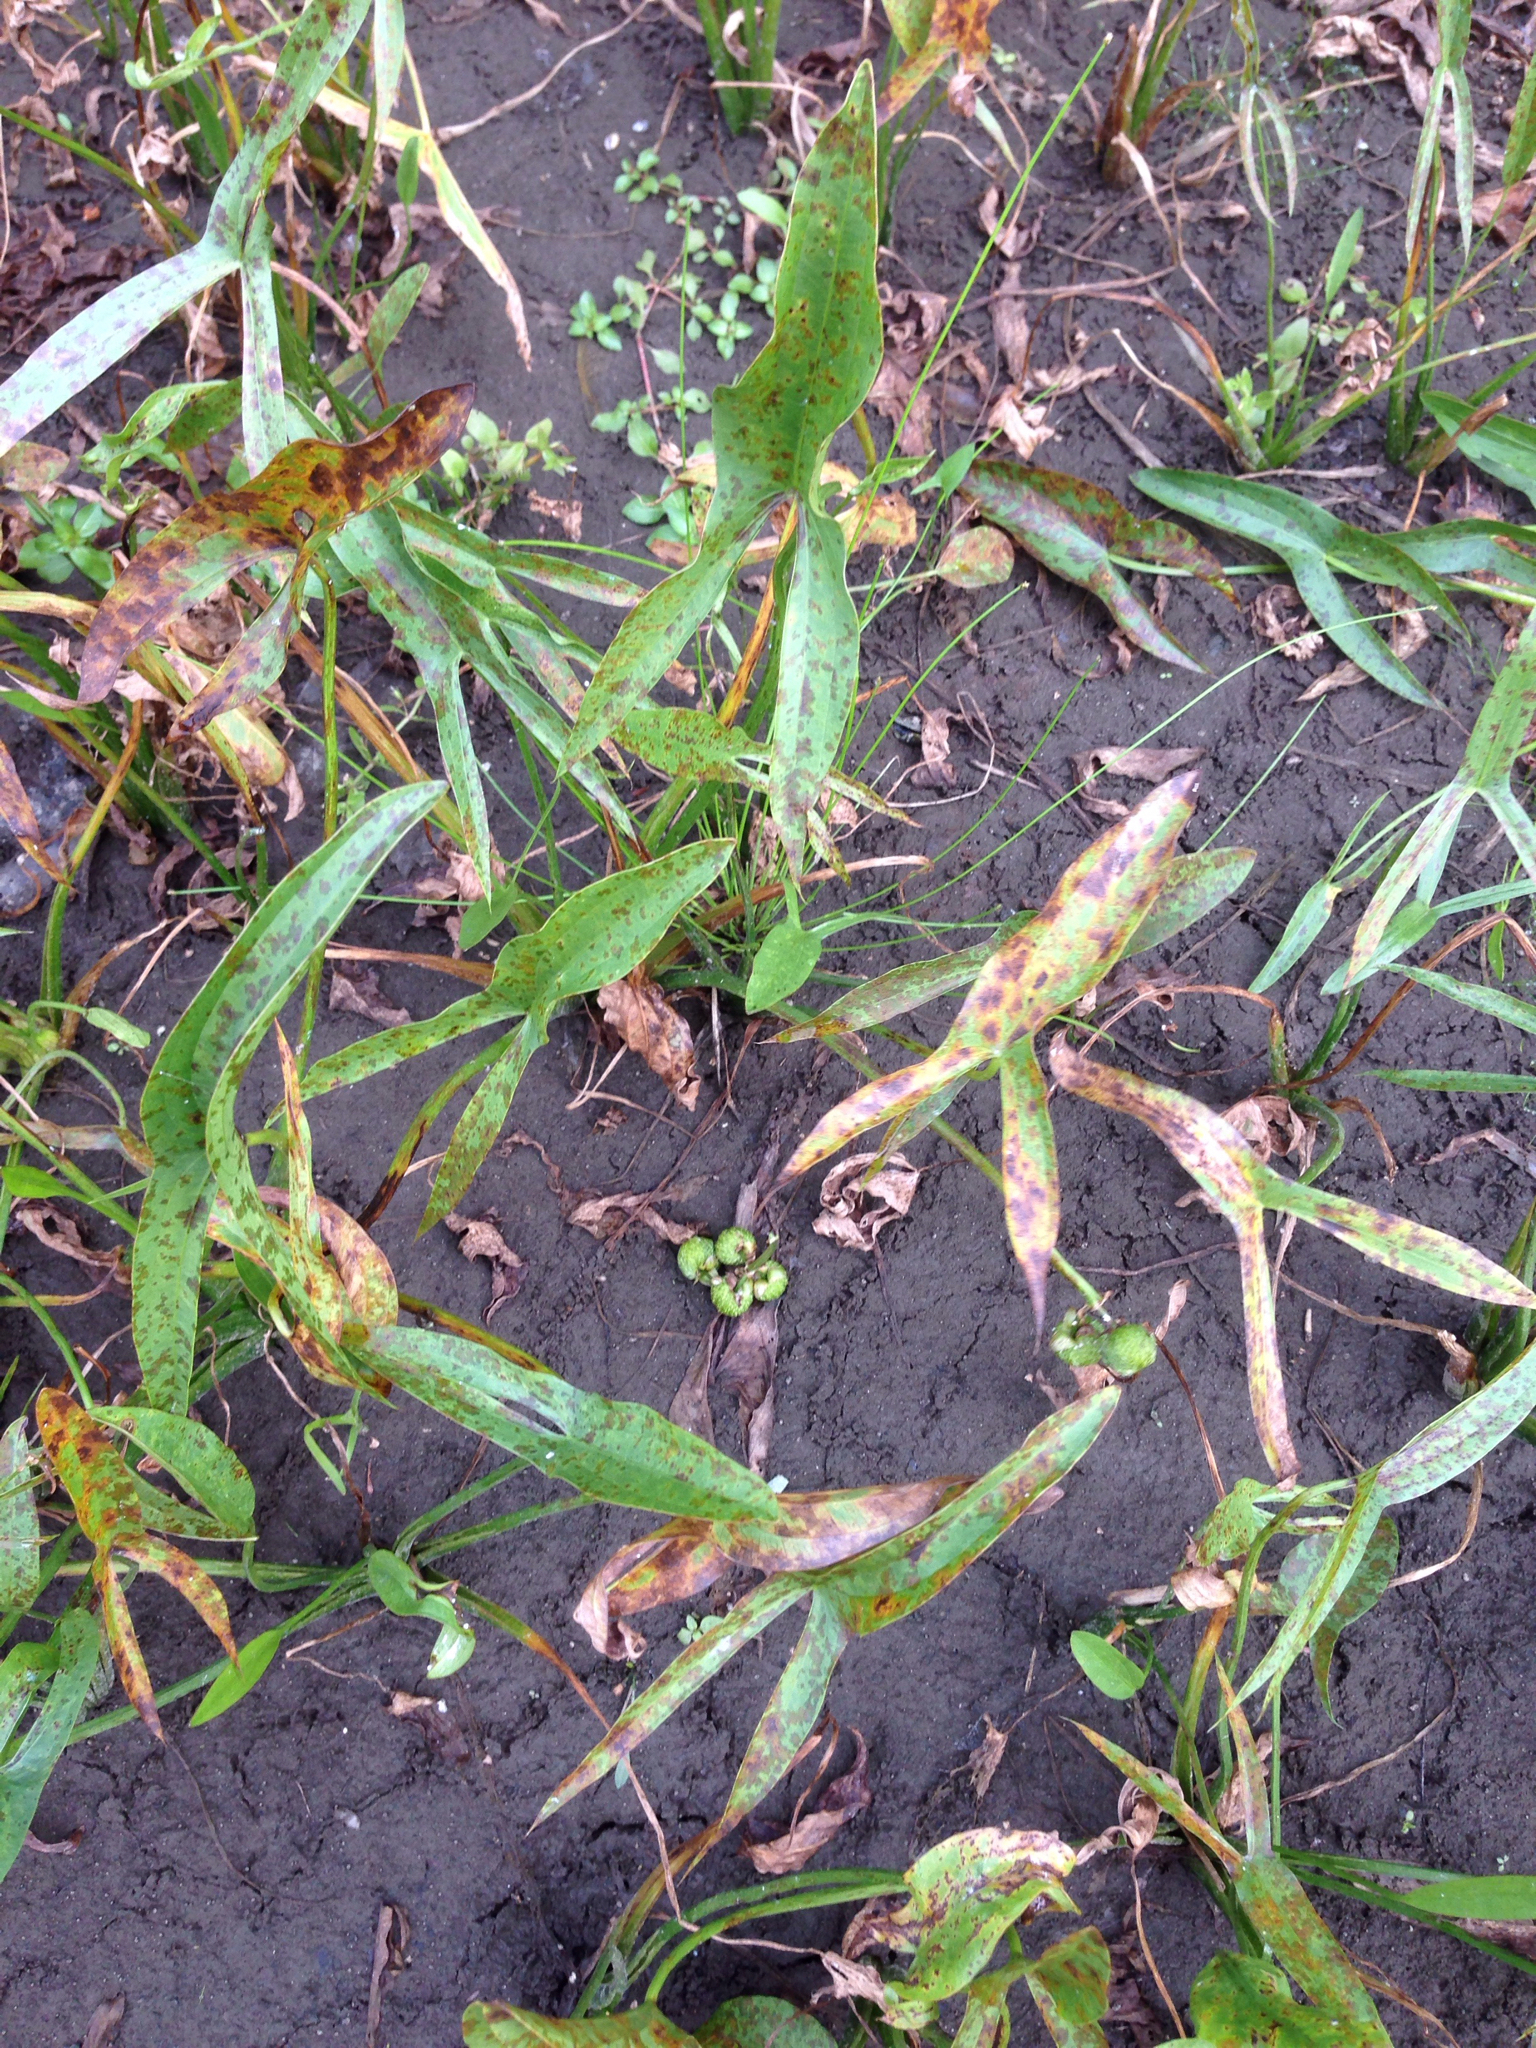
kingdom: Plantae
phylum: Tracheophyta
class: Liliopsida
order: Alismatales
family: Alismataceae
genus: Sagittaria
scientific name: Sagittaria latifolia
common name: Duck-potato
